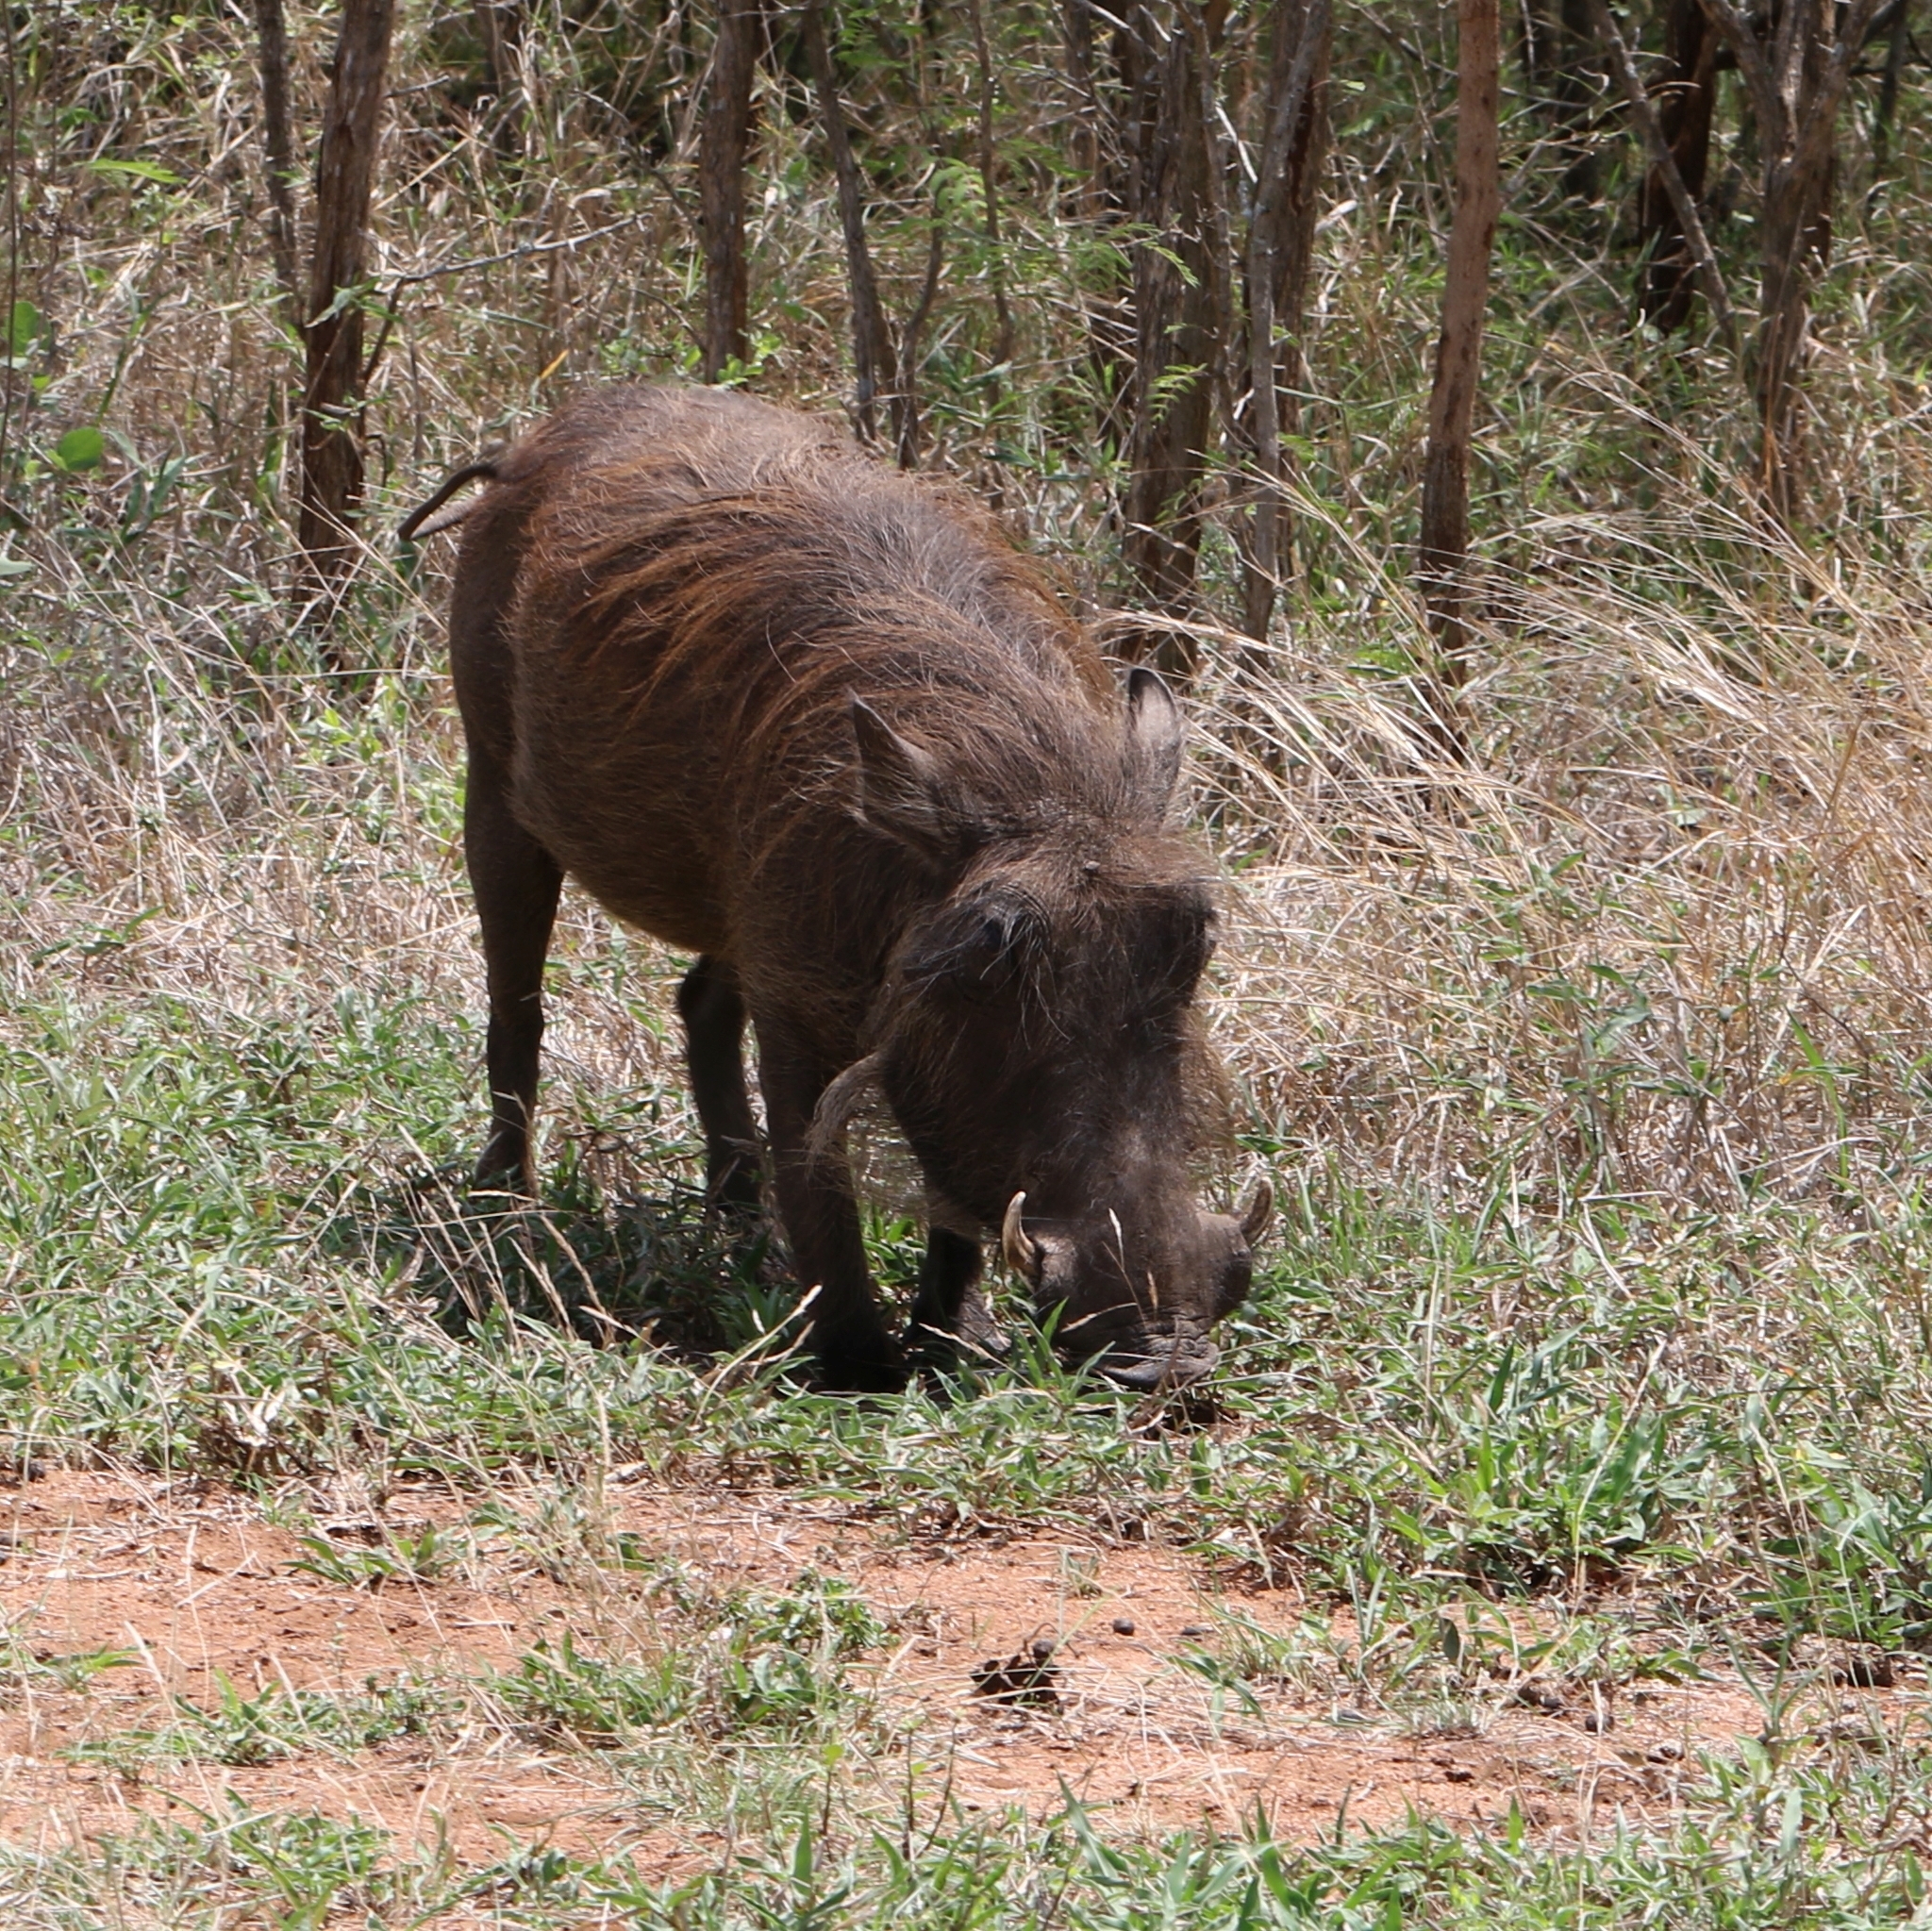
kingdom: Animalia
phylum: Chordata
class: Mammalia
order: Artiodactyla
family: Suidae
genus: Phacochoerus
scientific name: Phacochoerus africanus
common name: Common warthog
